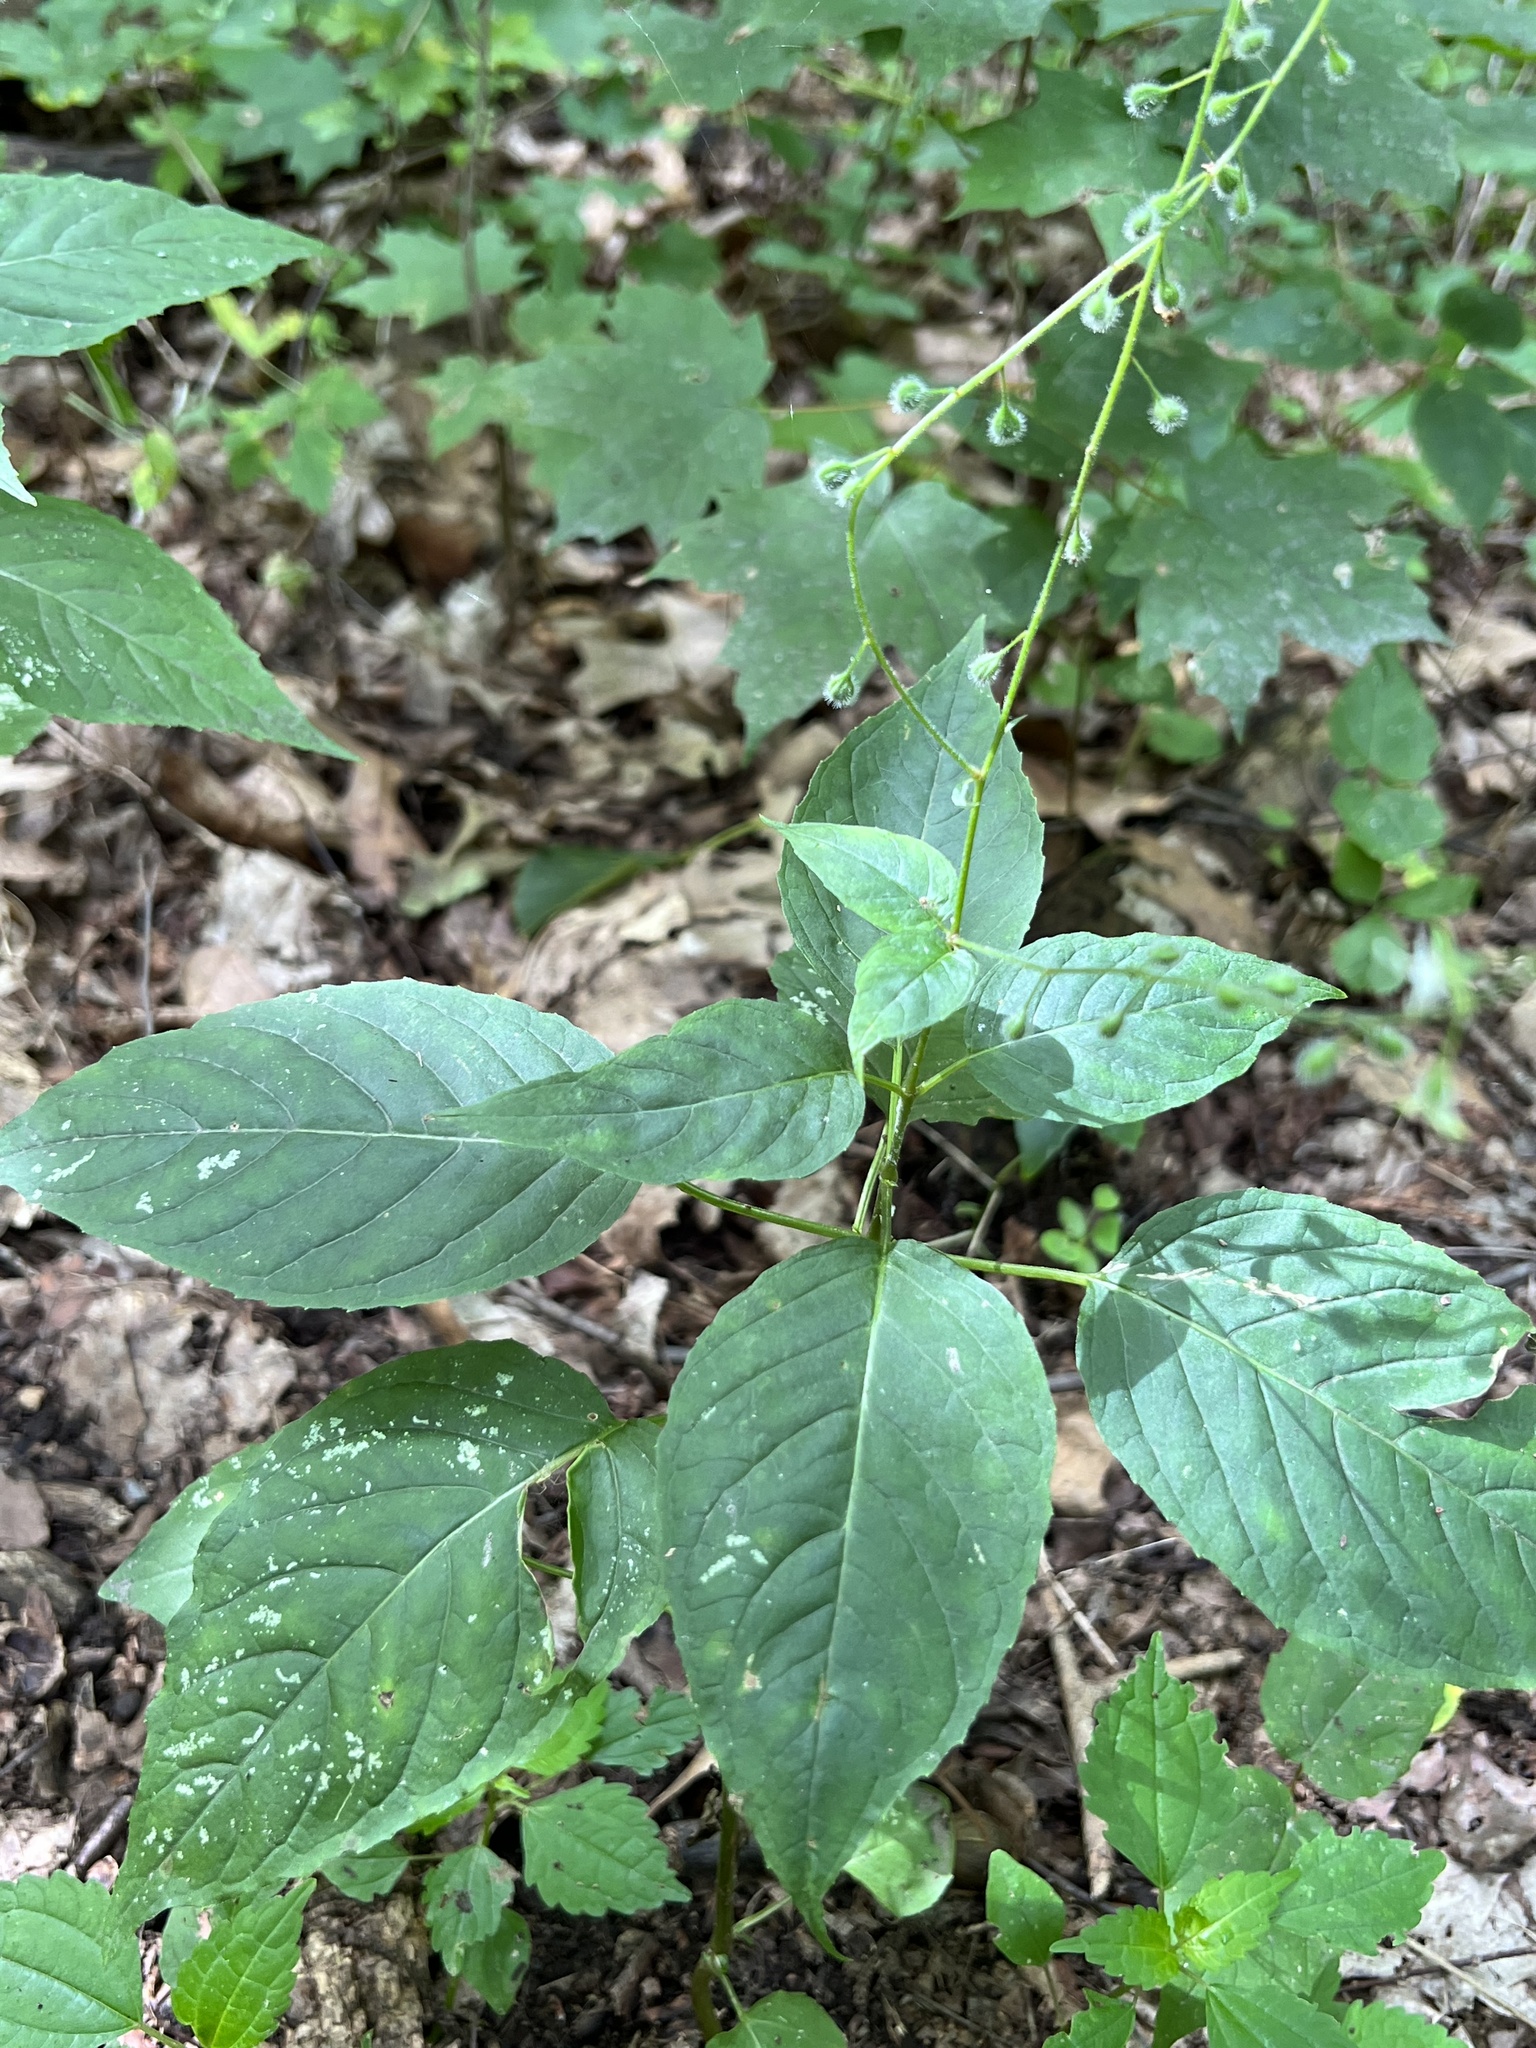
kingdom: Plantae
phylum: Tracheophyta
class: Magnoliopsida
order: Myrtales
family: Onagraceae
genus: Circaea
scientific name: Circaea canadensis
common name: Broad-leaved enchanter's nightshade
